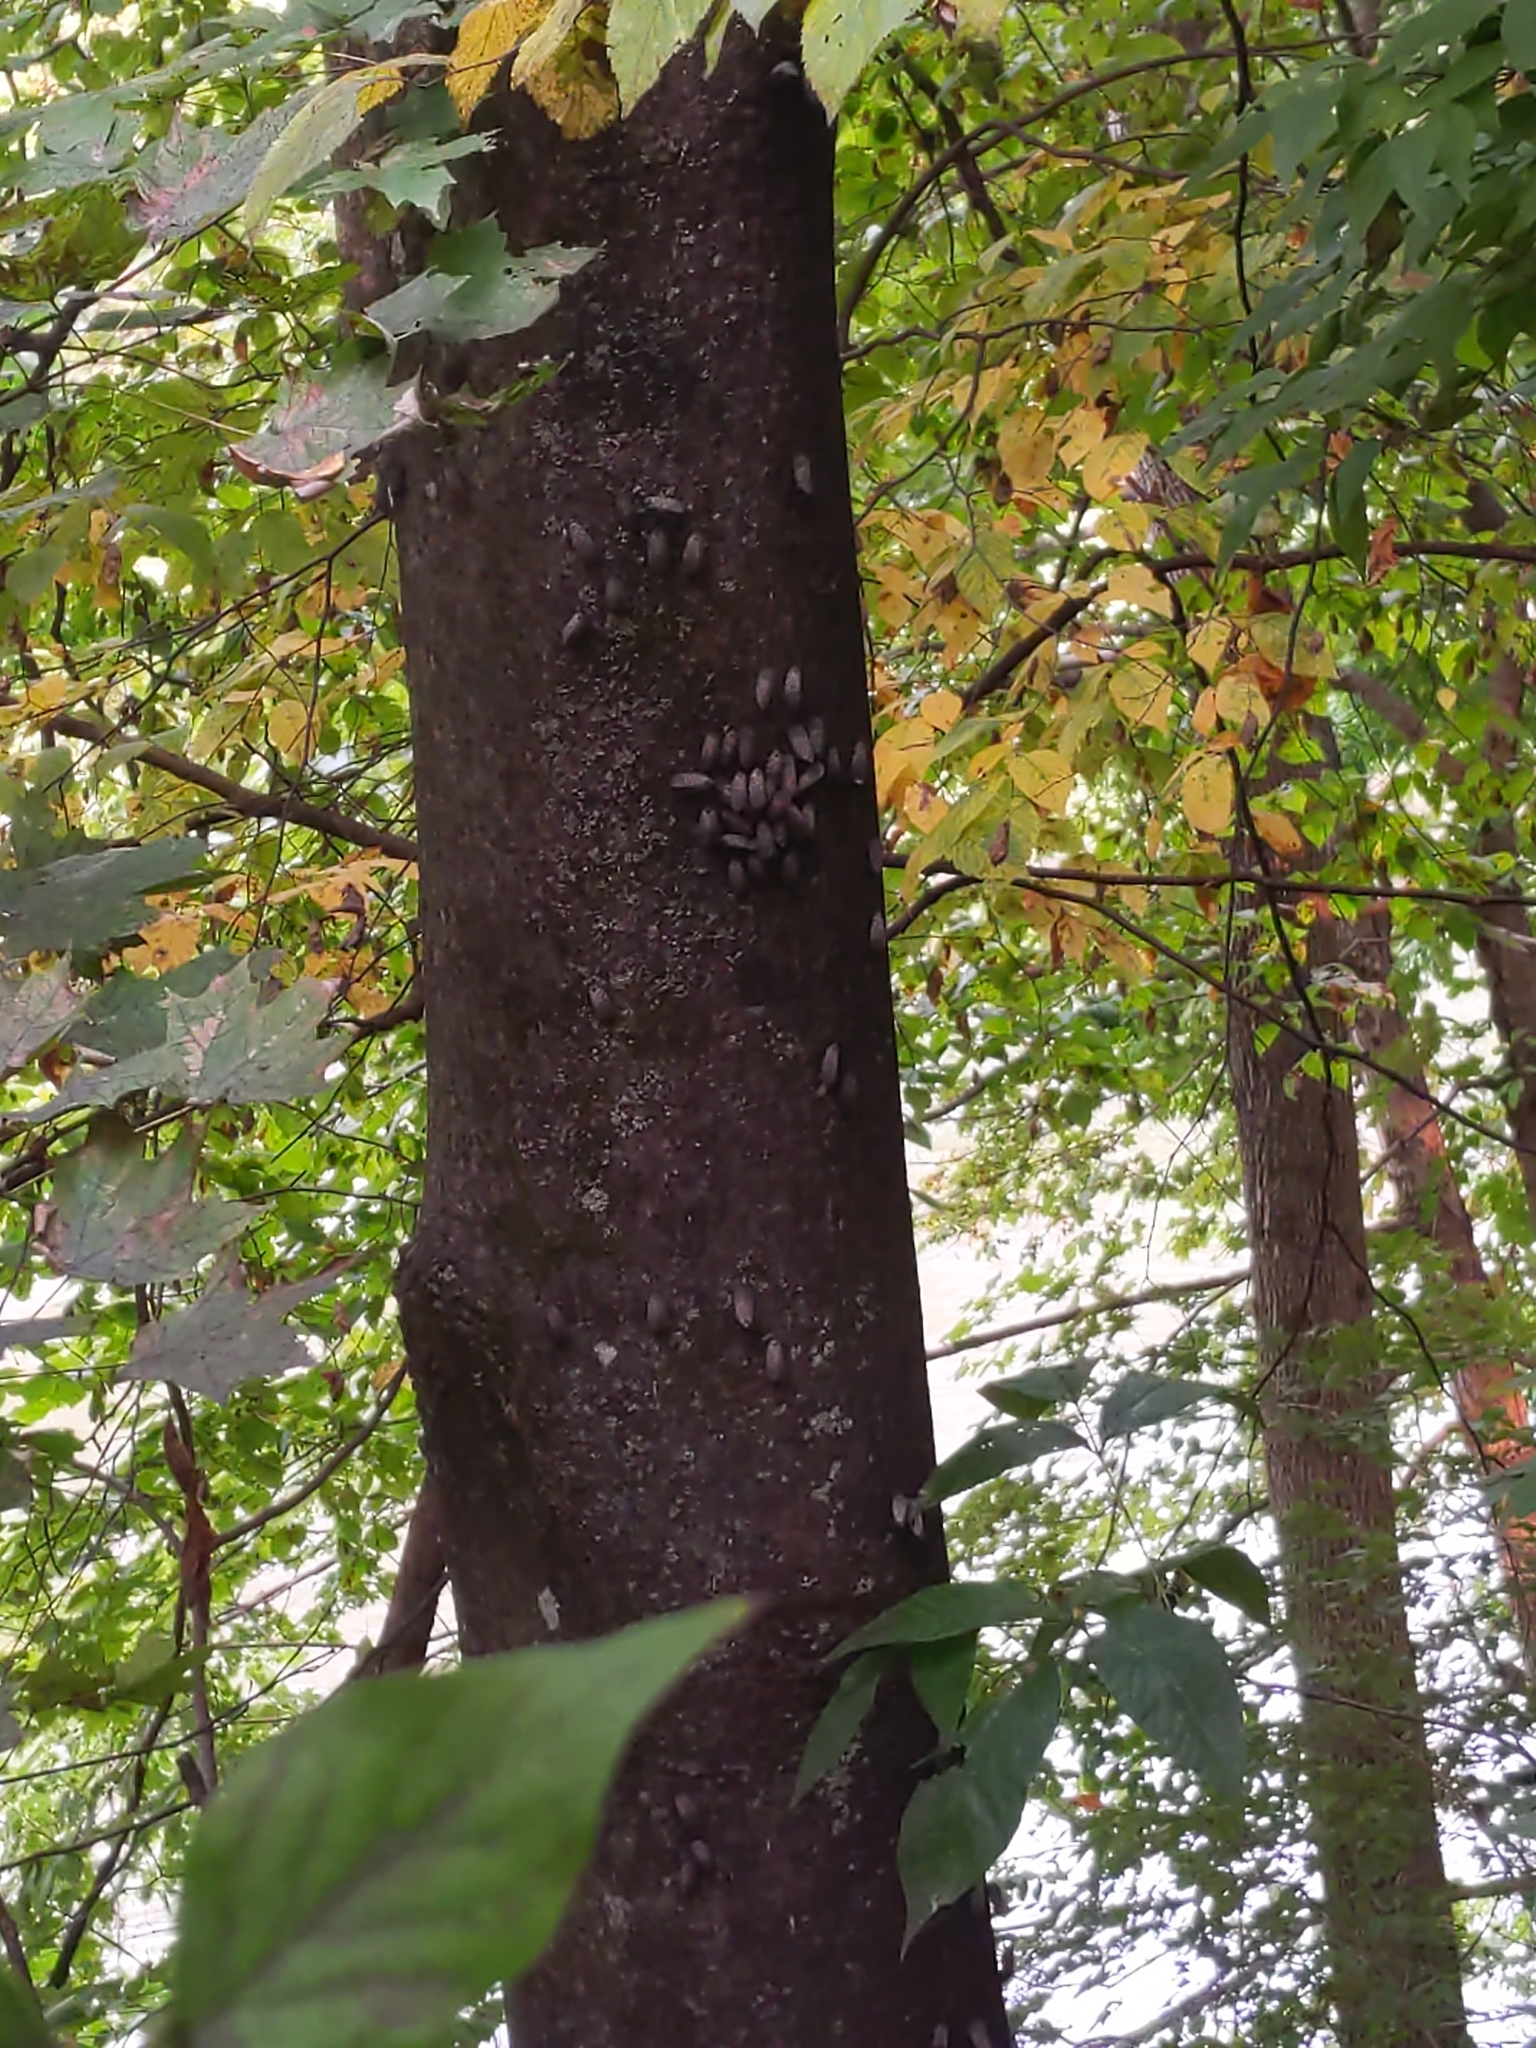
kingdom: Animalia
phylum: Arthropoda
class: Insecta
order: Hemiptera
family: Fulgoridae
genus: Lycorma
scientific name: Lycorma delicatula
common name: Spotted lanternfly
